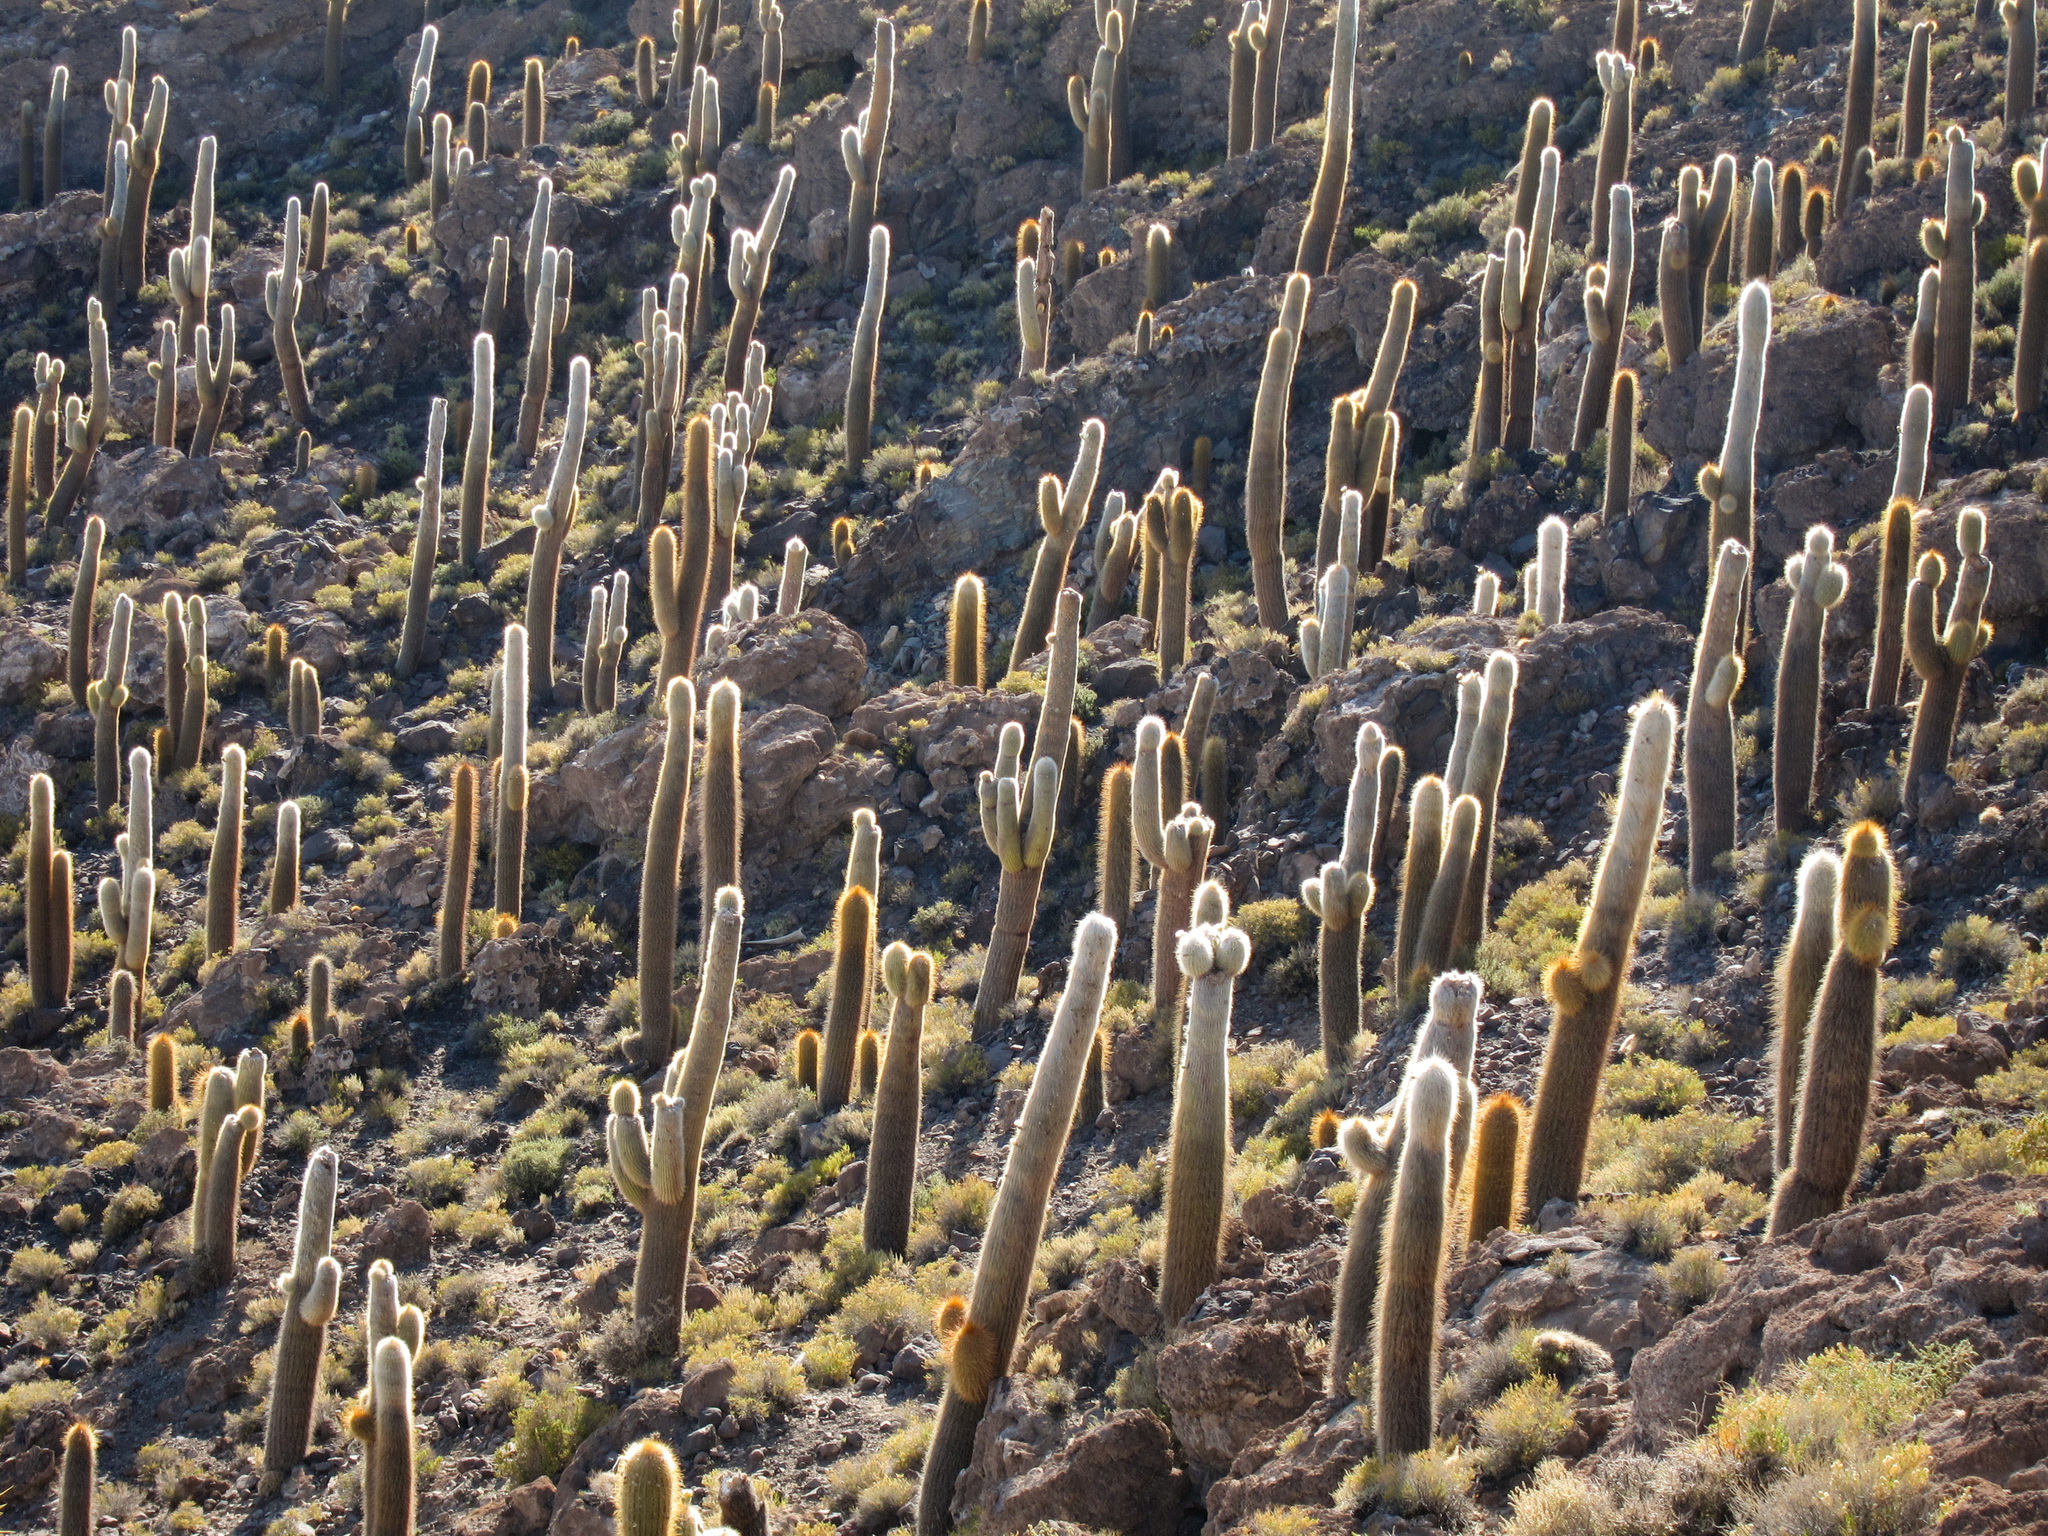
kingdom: Plantae
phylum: Tracheophyta
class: Magnoliopsida
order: Caryophyllales
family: Cactaceae
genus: Leucostele
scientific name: Leucostele atacamensis
